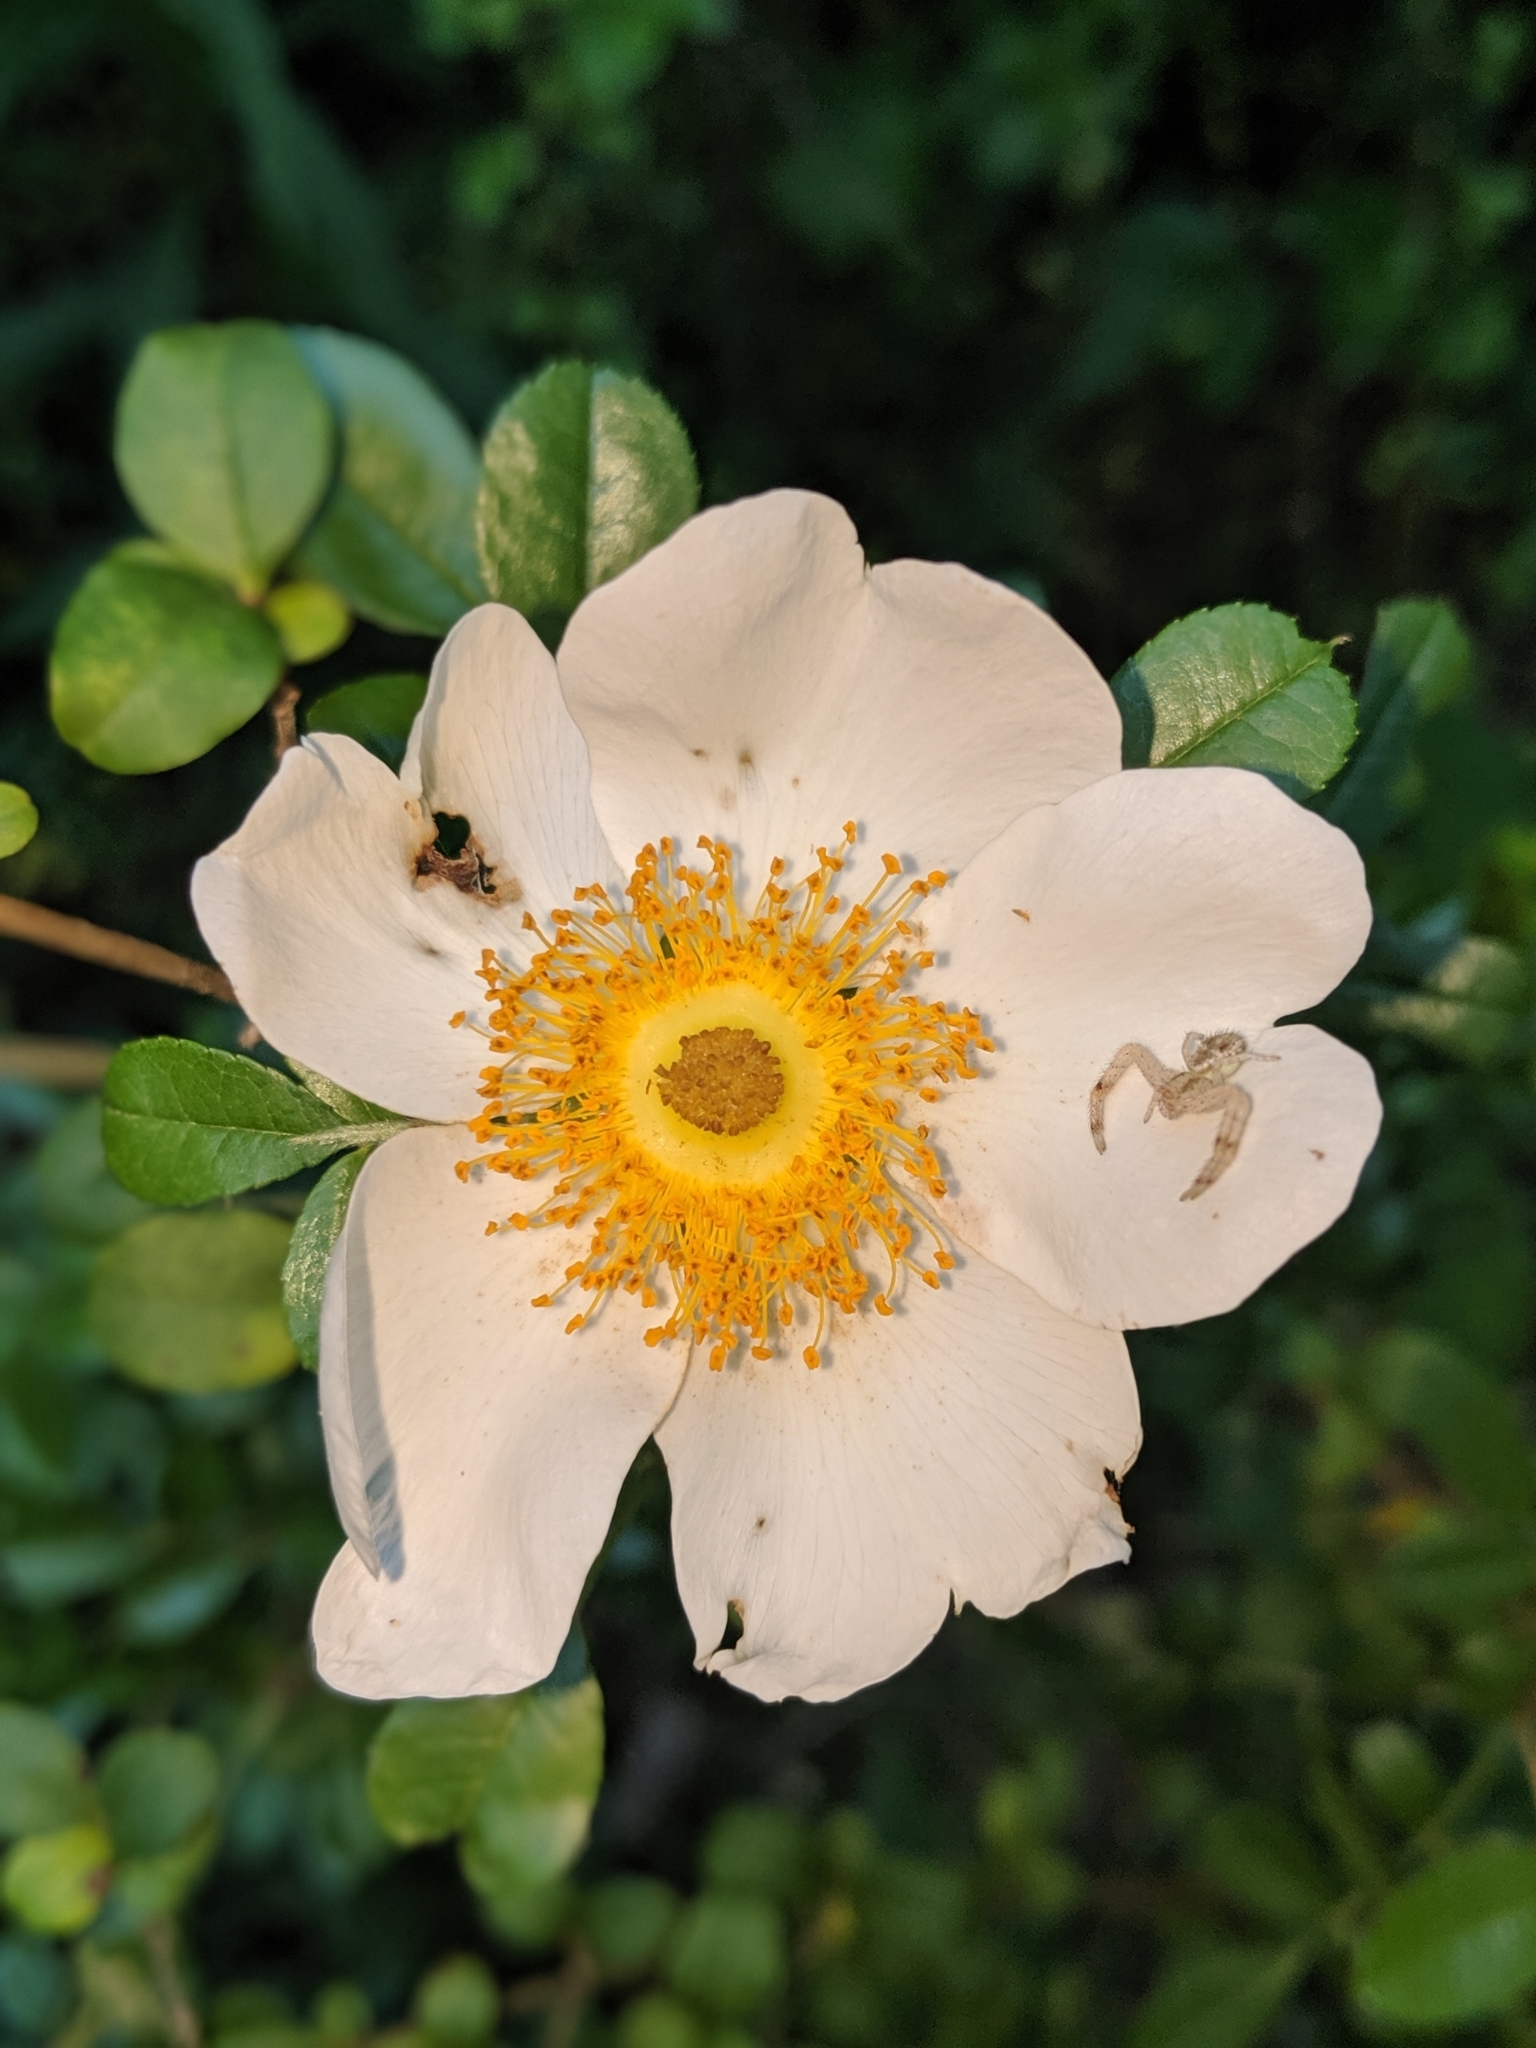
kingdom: Plantae
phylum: Tracheophyta
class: Magnoliopsida
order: Rosales
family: Rosaceae
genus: Rosa
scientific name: Rosa bracteata
